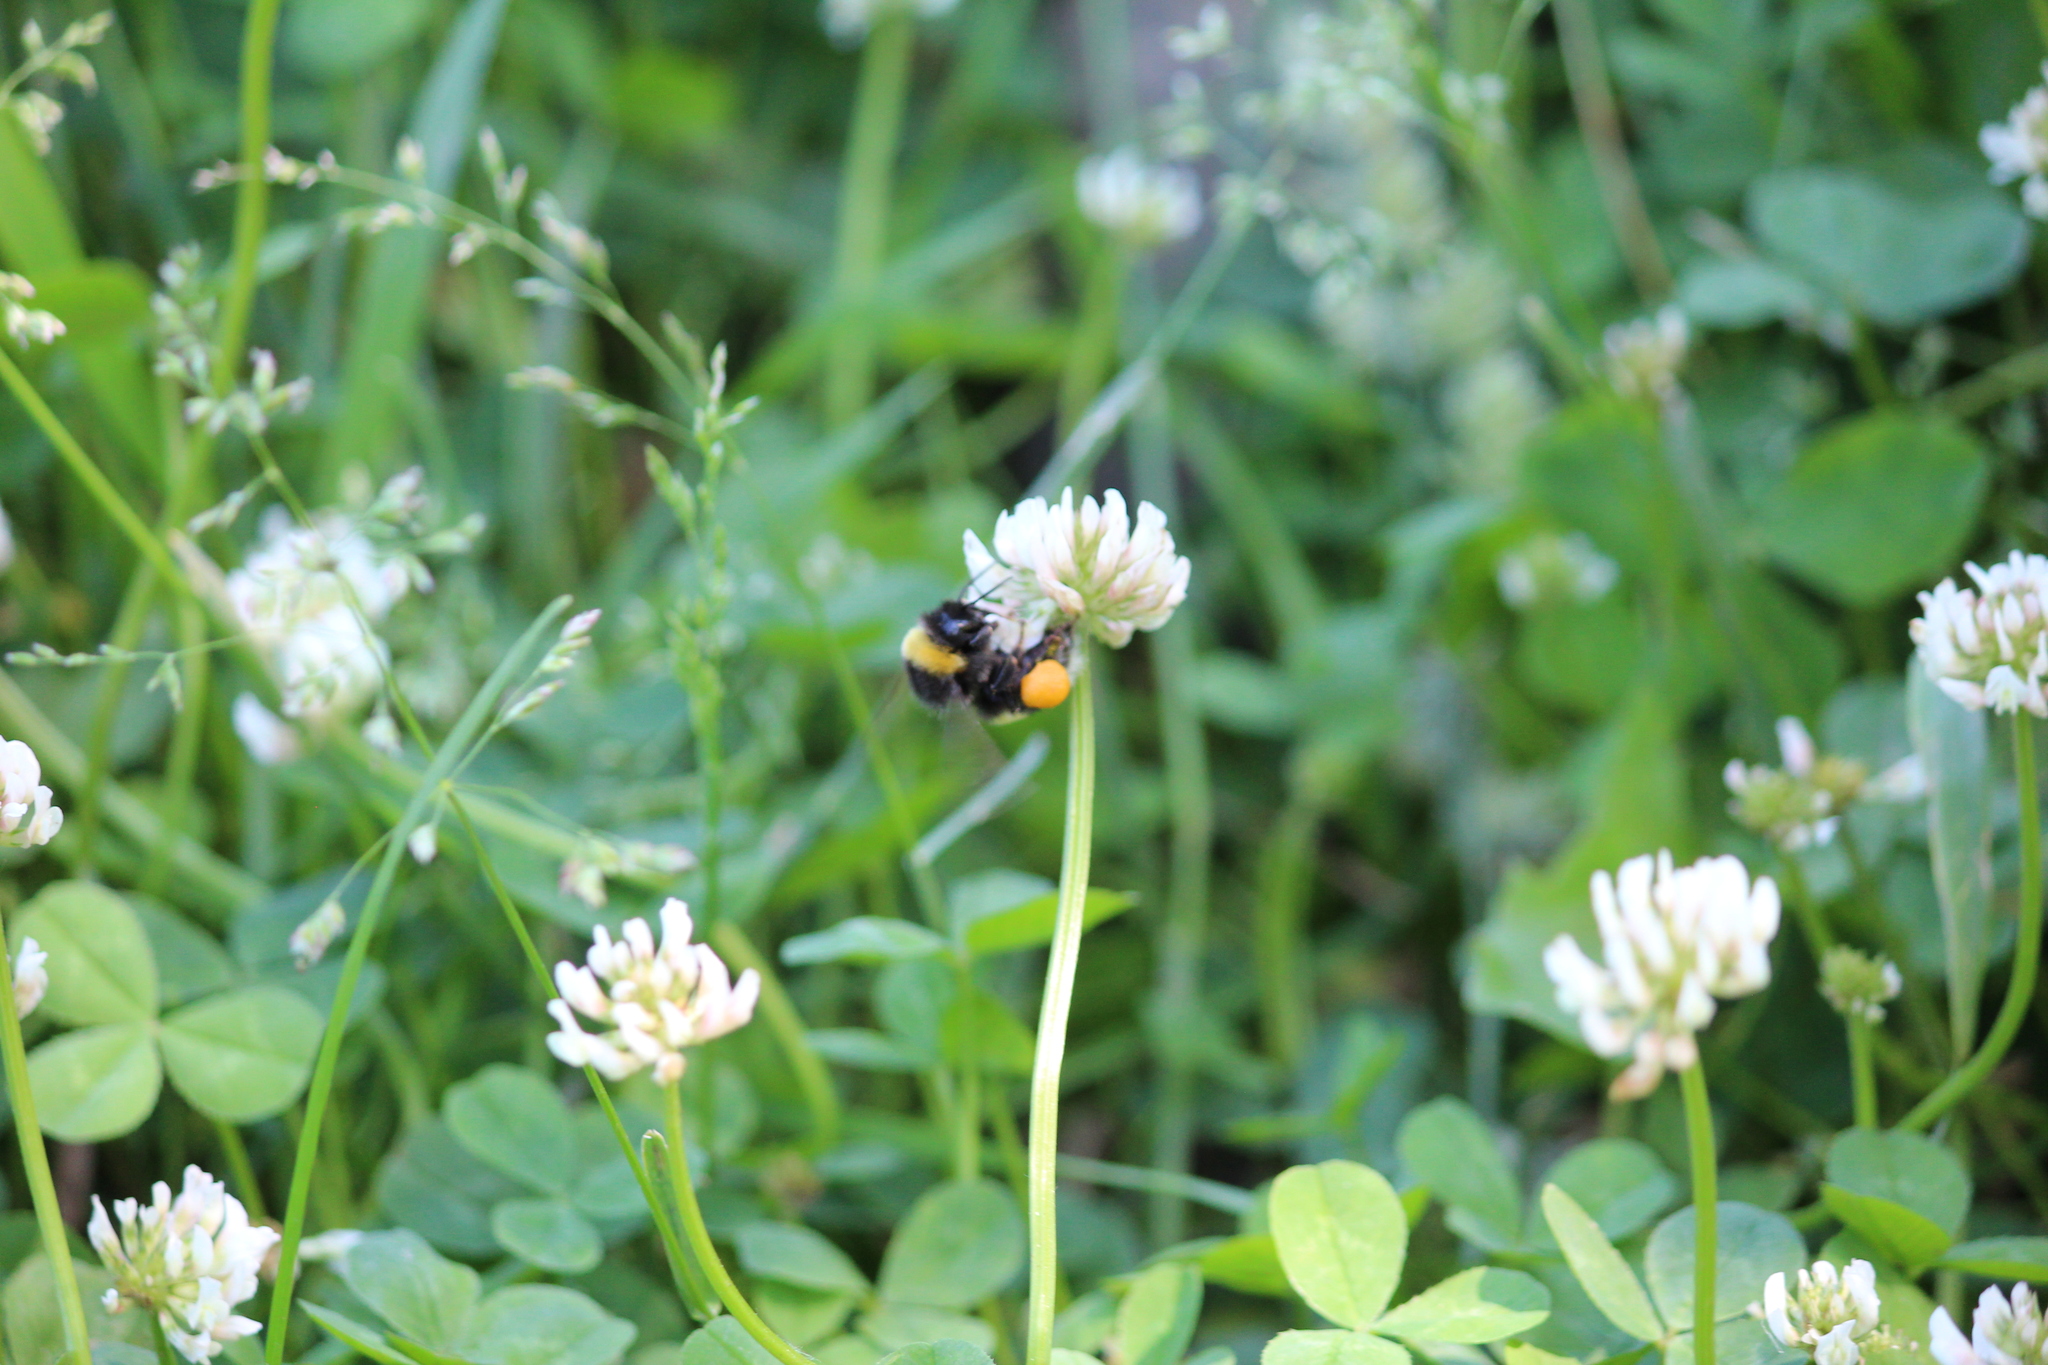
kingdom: Animalia
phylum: Arthropoda
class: Insecta
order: Hymenoptera
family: Apidae
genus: Bombus
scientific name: Bombus
